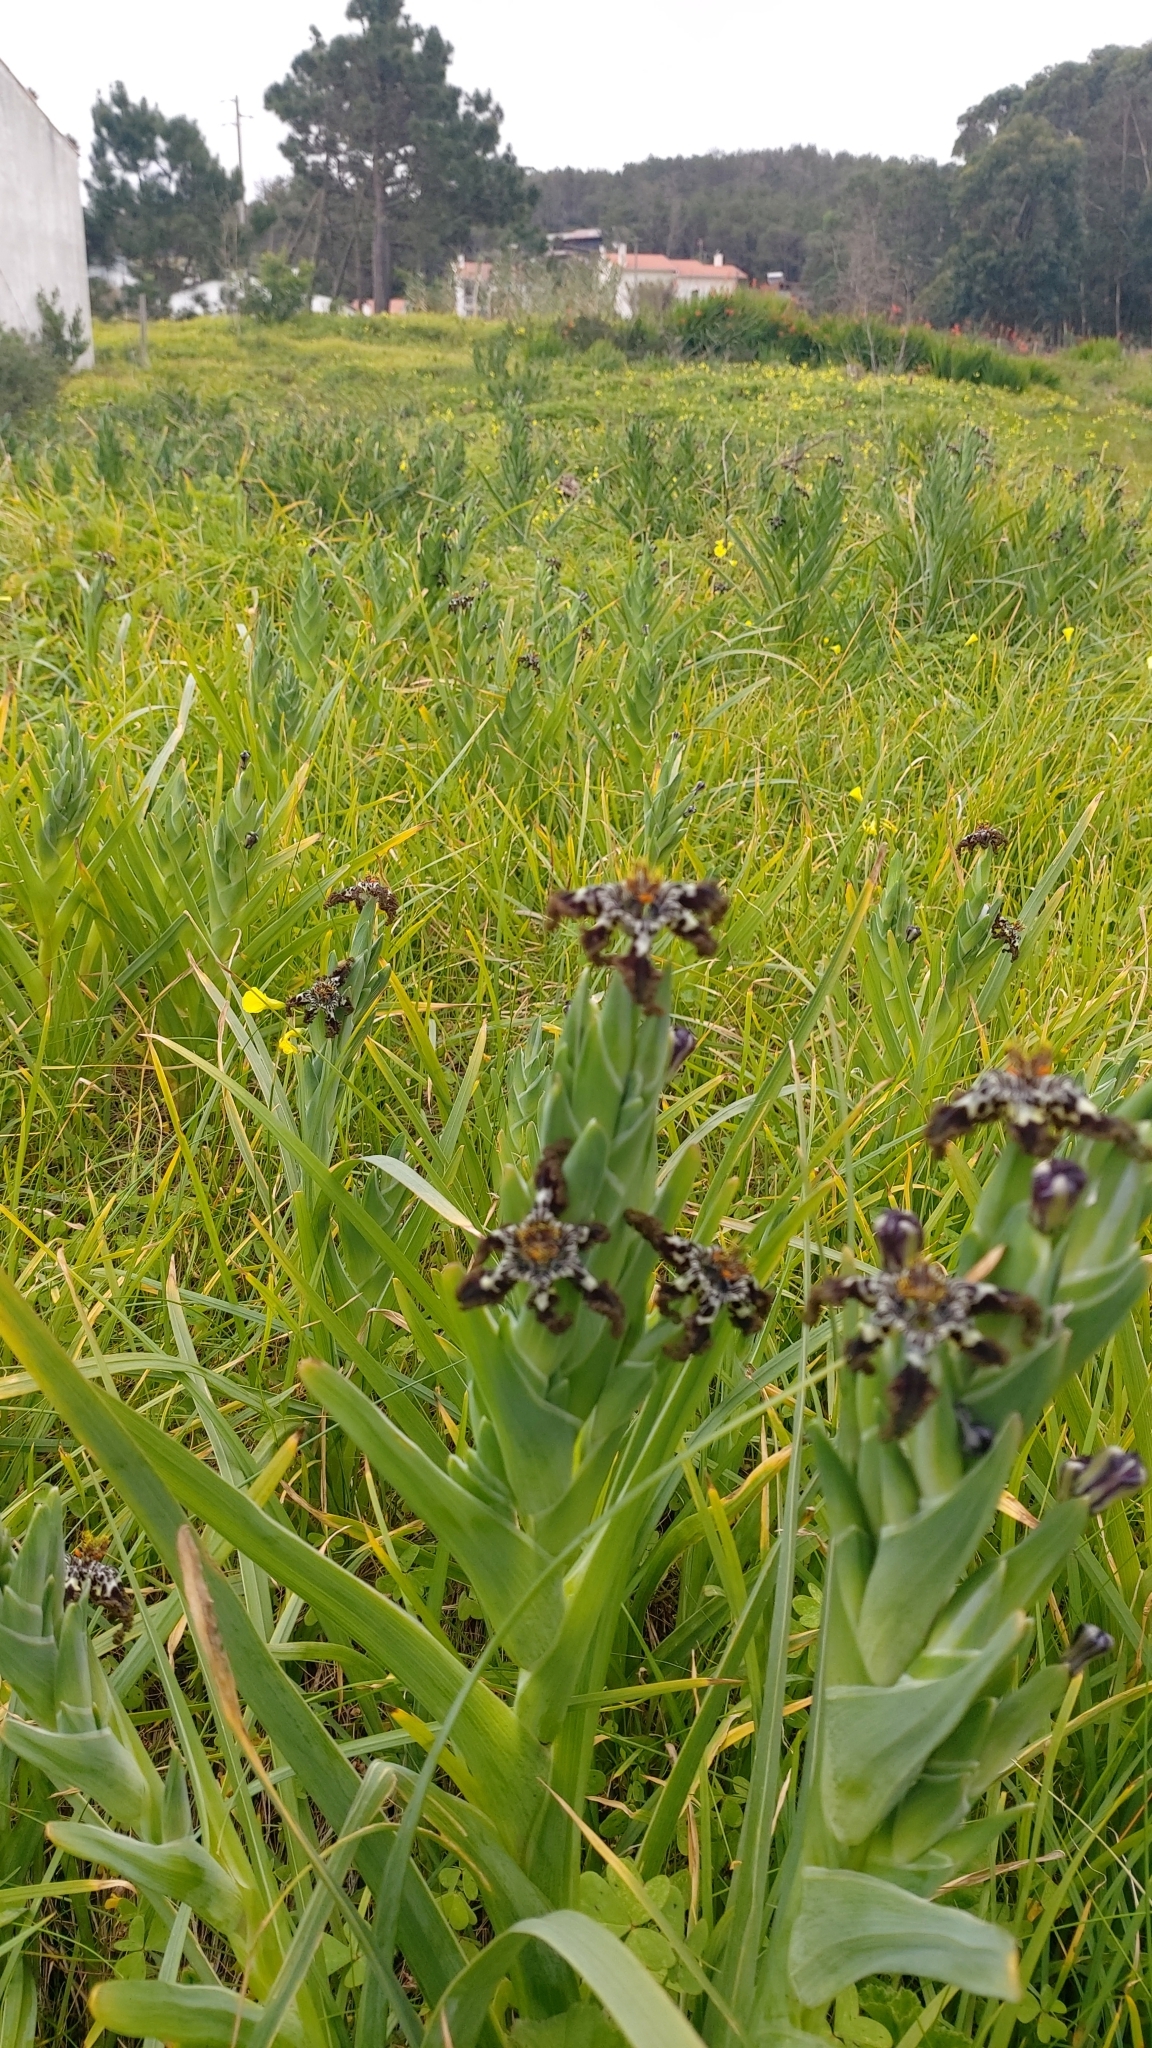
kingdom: Plantae
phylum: Tracheophyta
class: Liliopsida
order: Asparagales
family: Iridaceae
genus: Ferraria
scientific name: Ferraria crispa
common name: Black-flag
